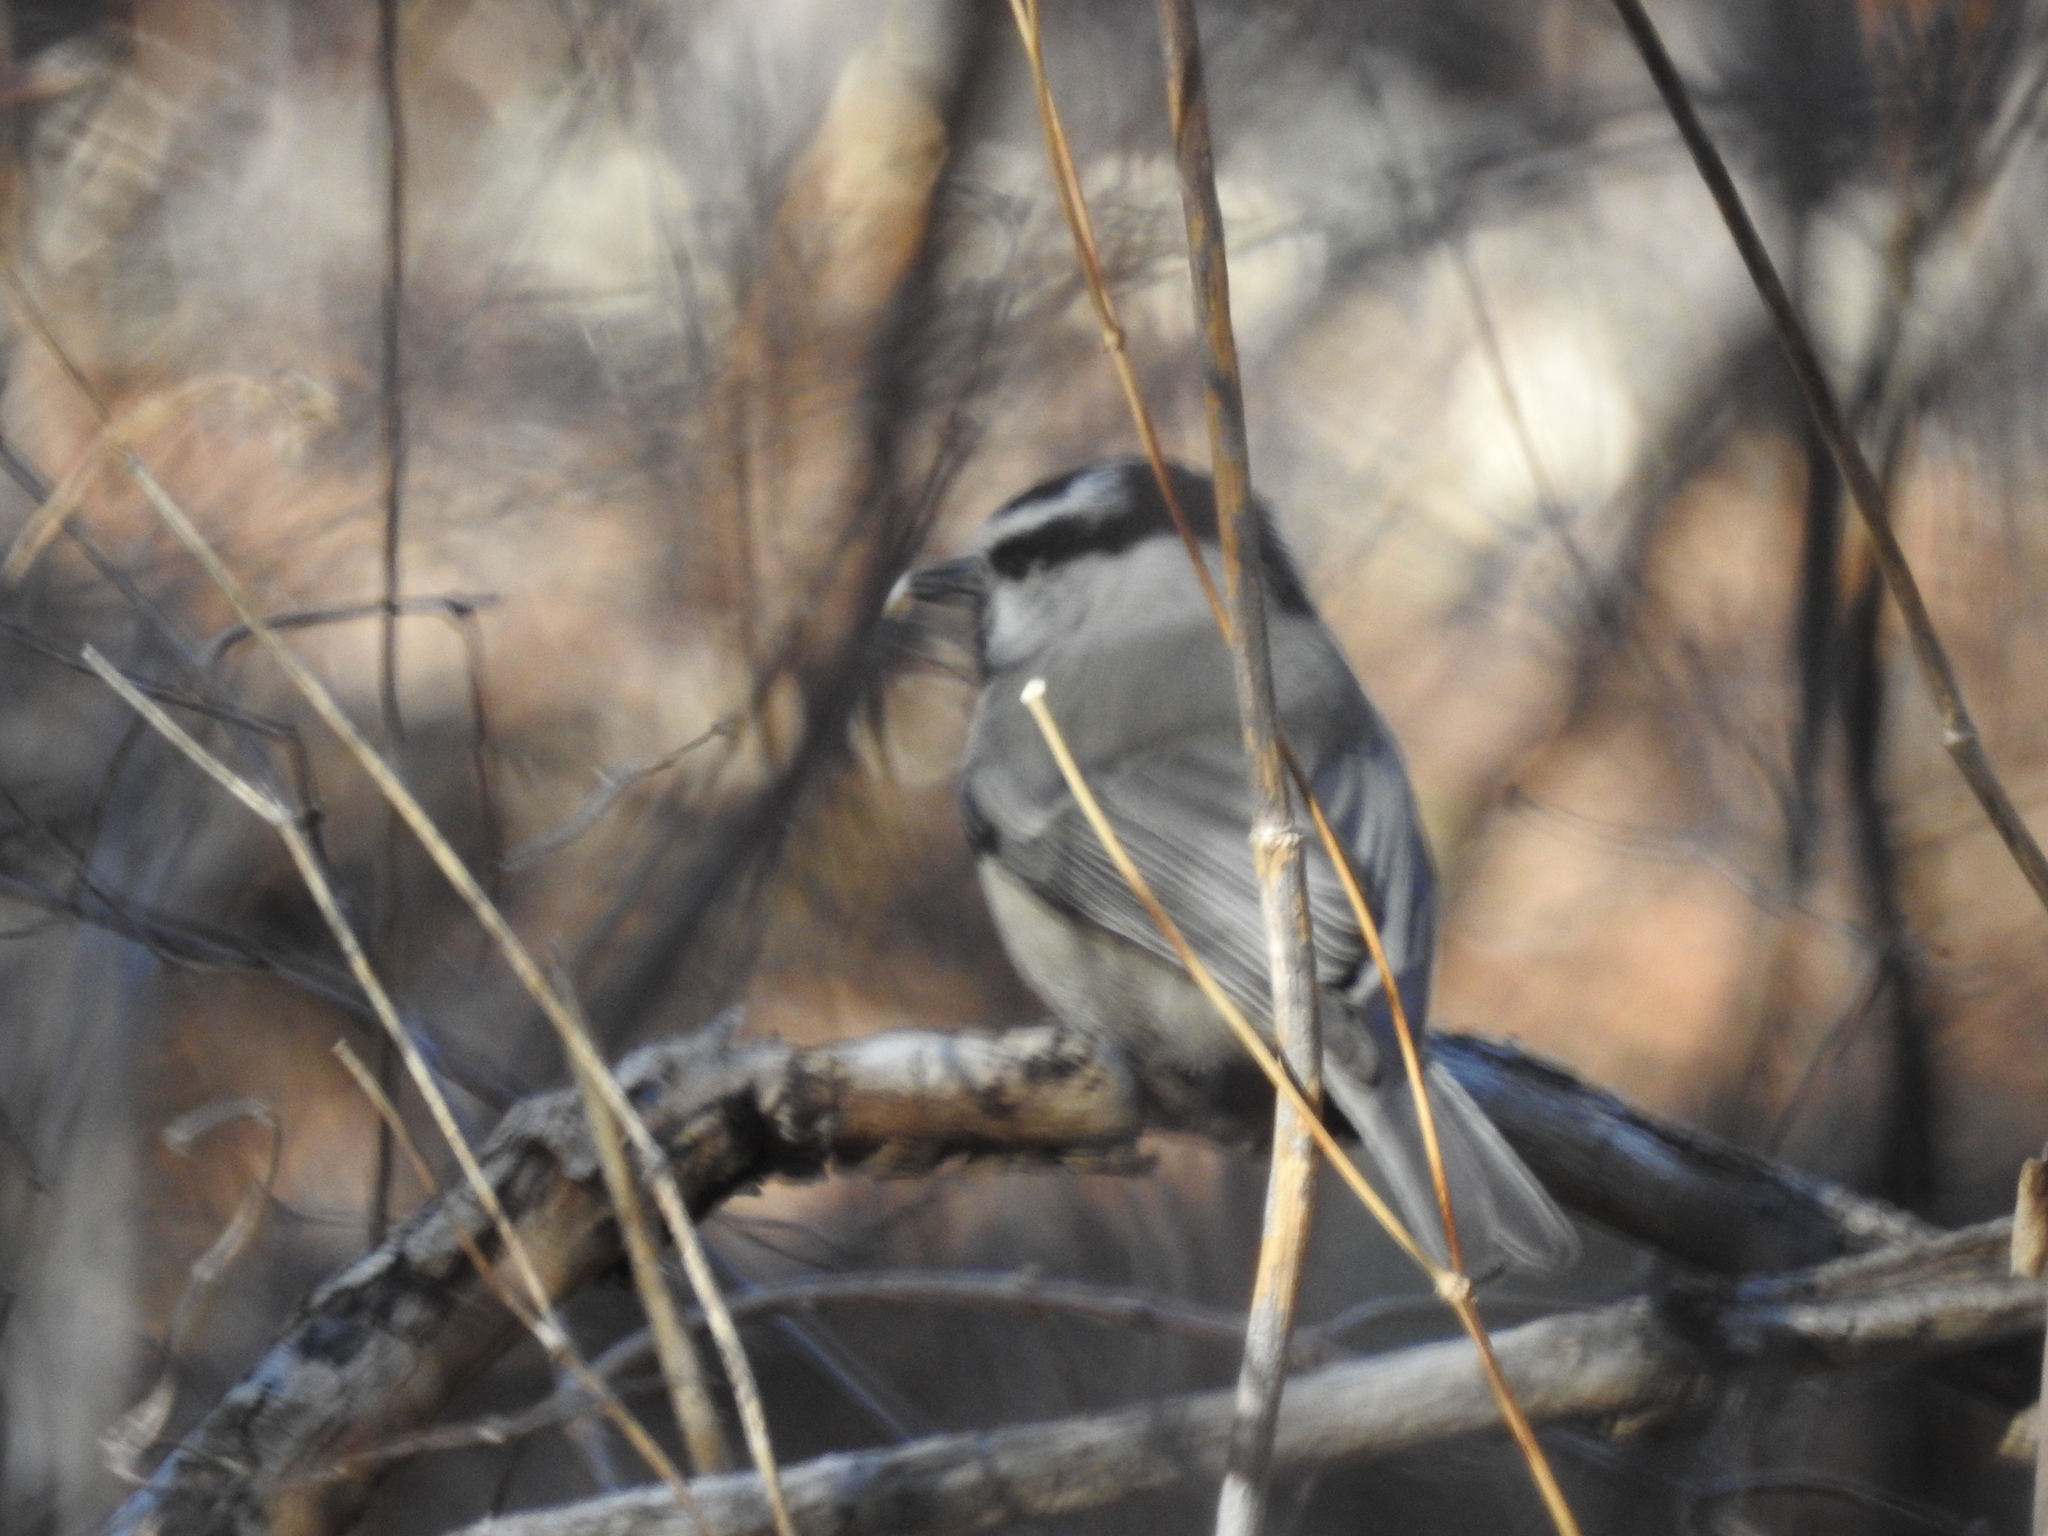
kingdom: Animalia
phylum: Chordata
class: Aves
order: Passeriformes
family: Paridae
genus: Poecile
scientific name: Poecile gambeli
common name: Mountain chickadee
